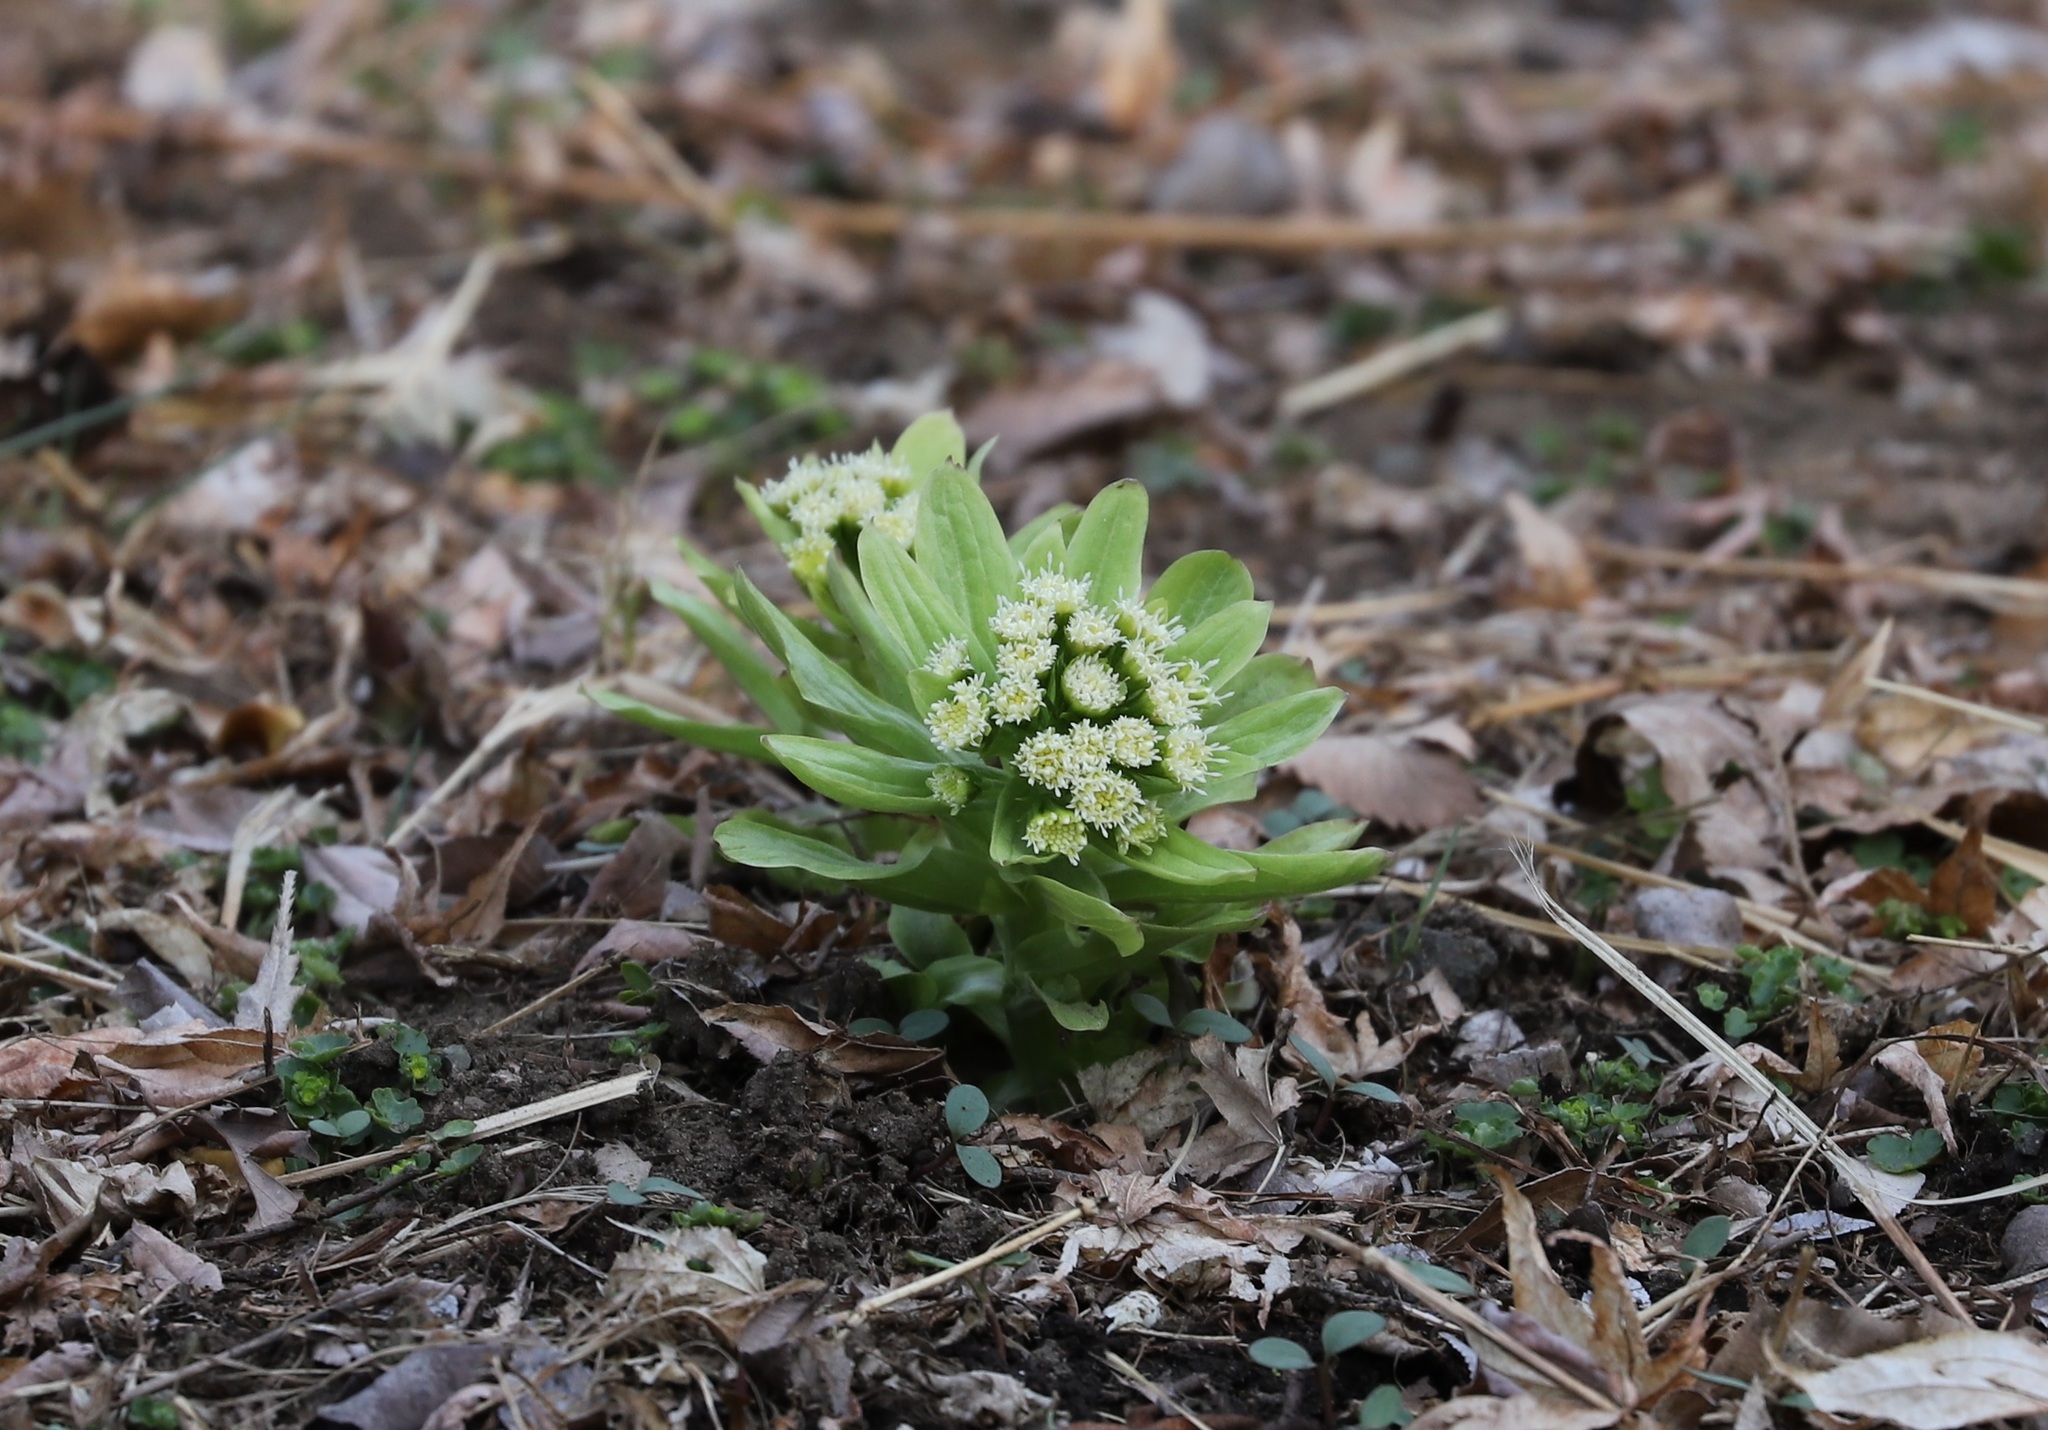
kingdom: Plantae
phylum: Tracheophyta
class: Magnoliopsida
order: Asterales
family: Asteraceae
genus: Petasites
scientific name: Petasites japonicus
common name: Giant butterbur
